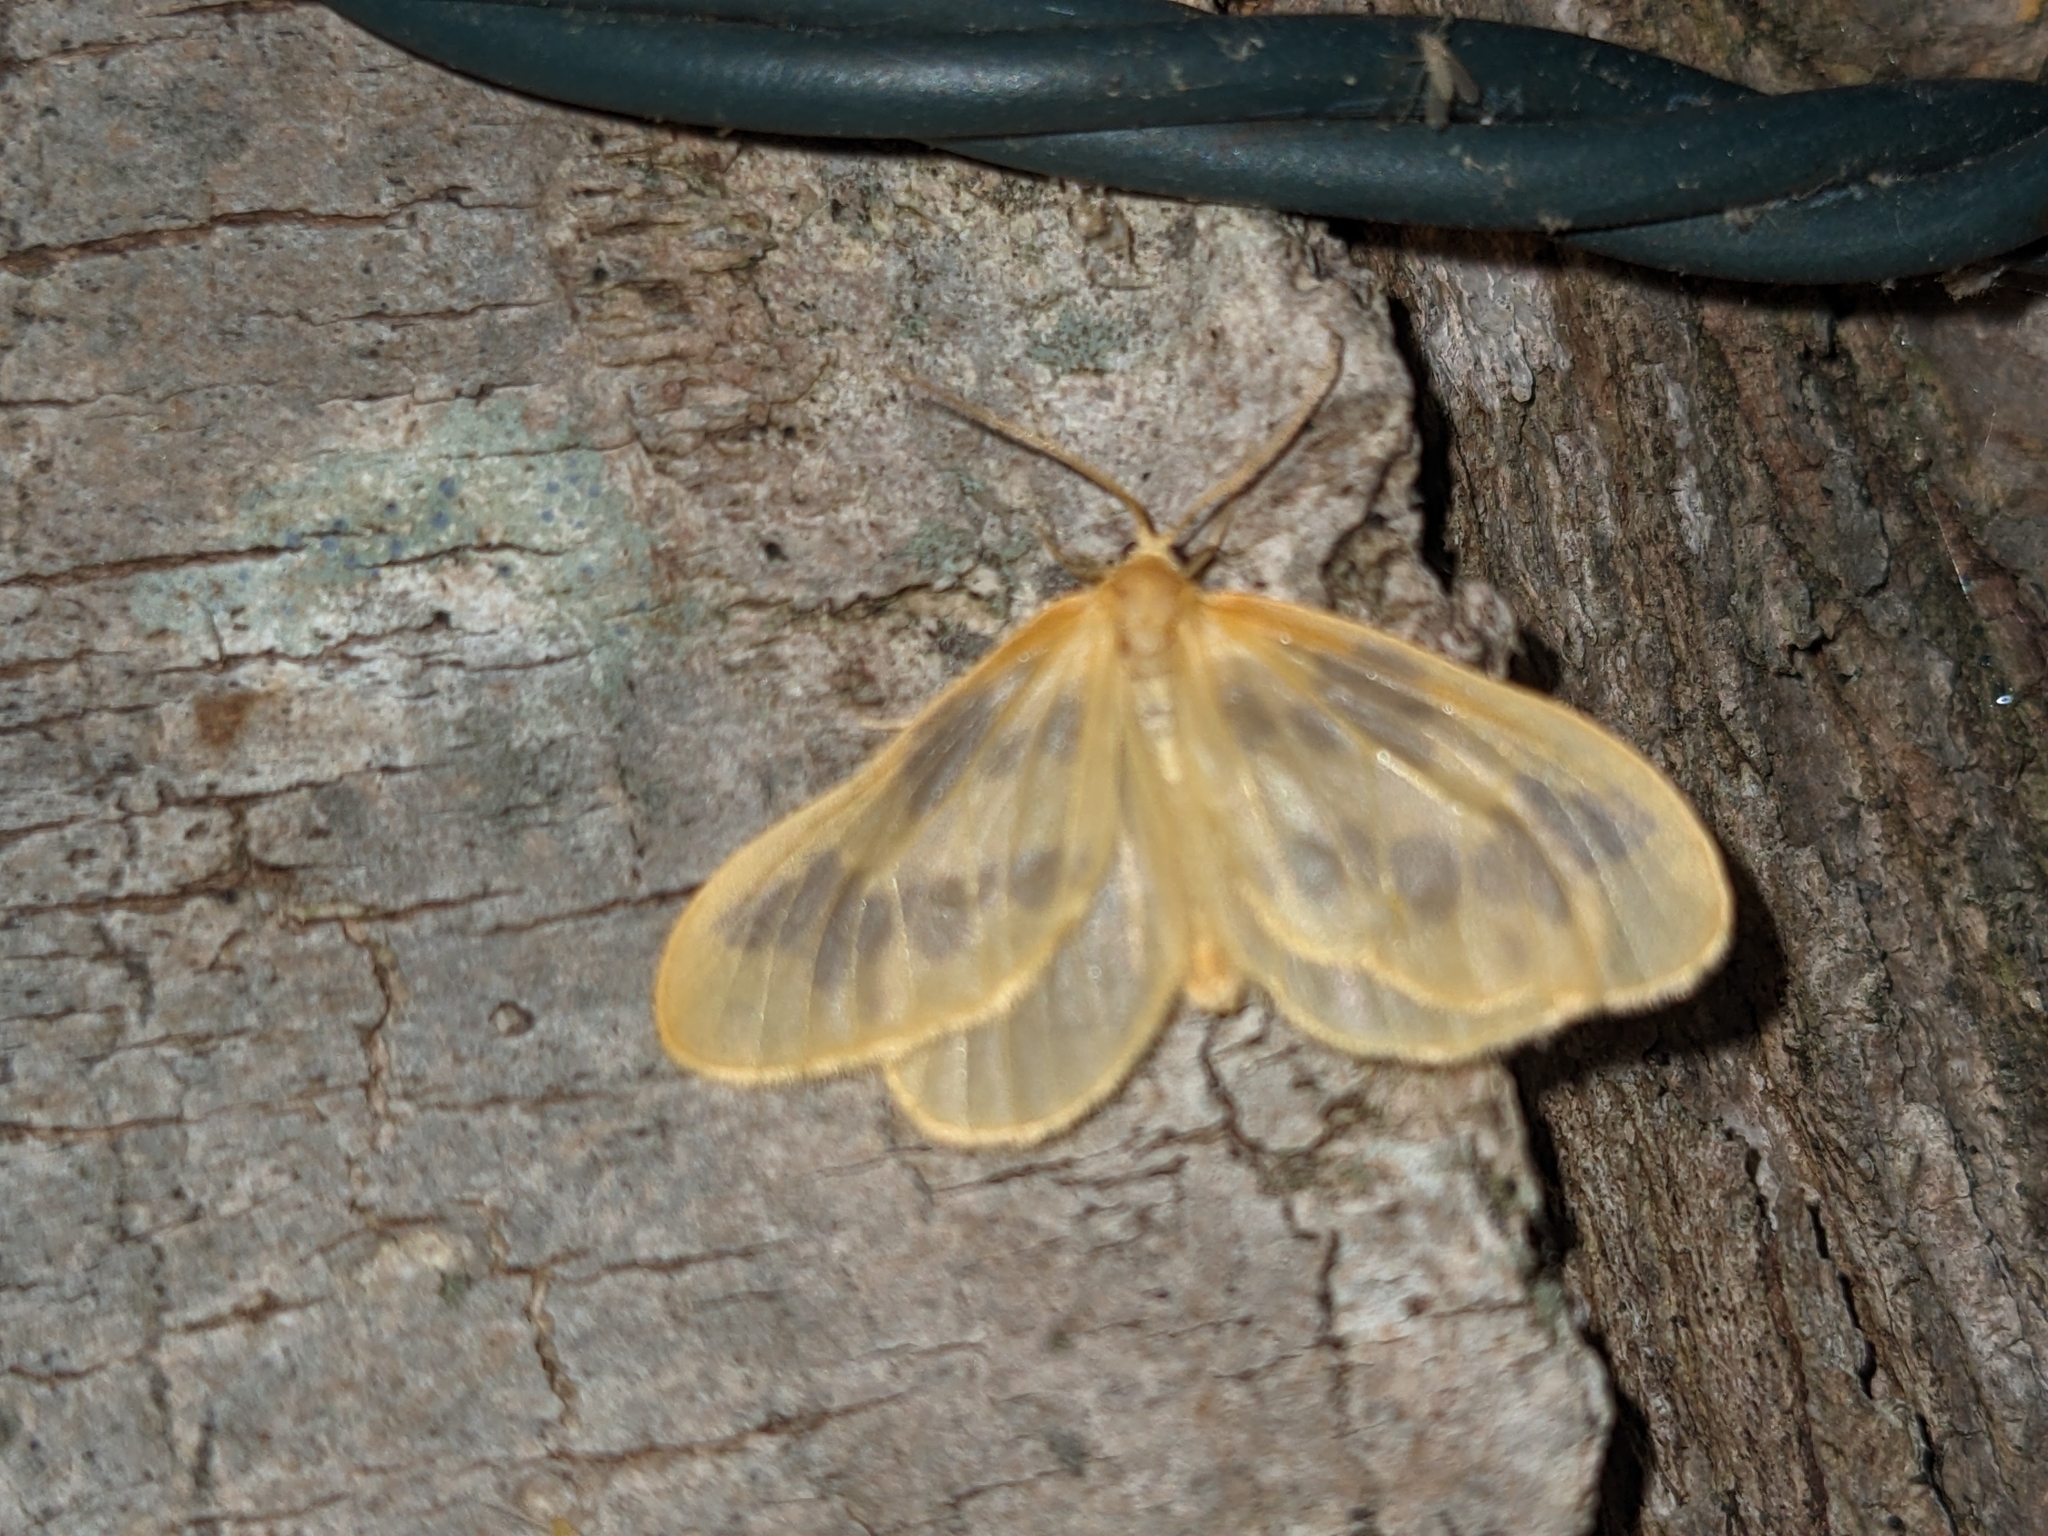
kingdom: Animalia
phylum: Arthropoda
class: Insecta
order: Lepidoptera
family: Geometridae
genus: Eubaphe
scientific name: Eubaphe mendica
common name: Beggar
